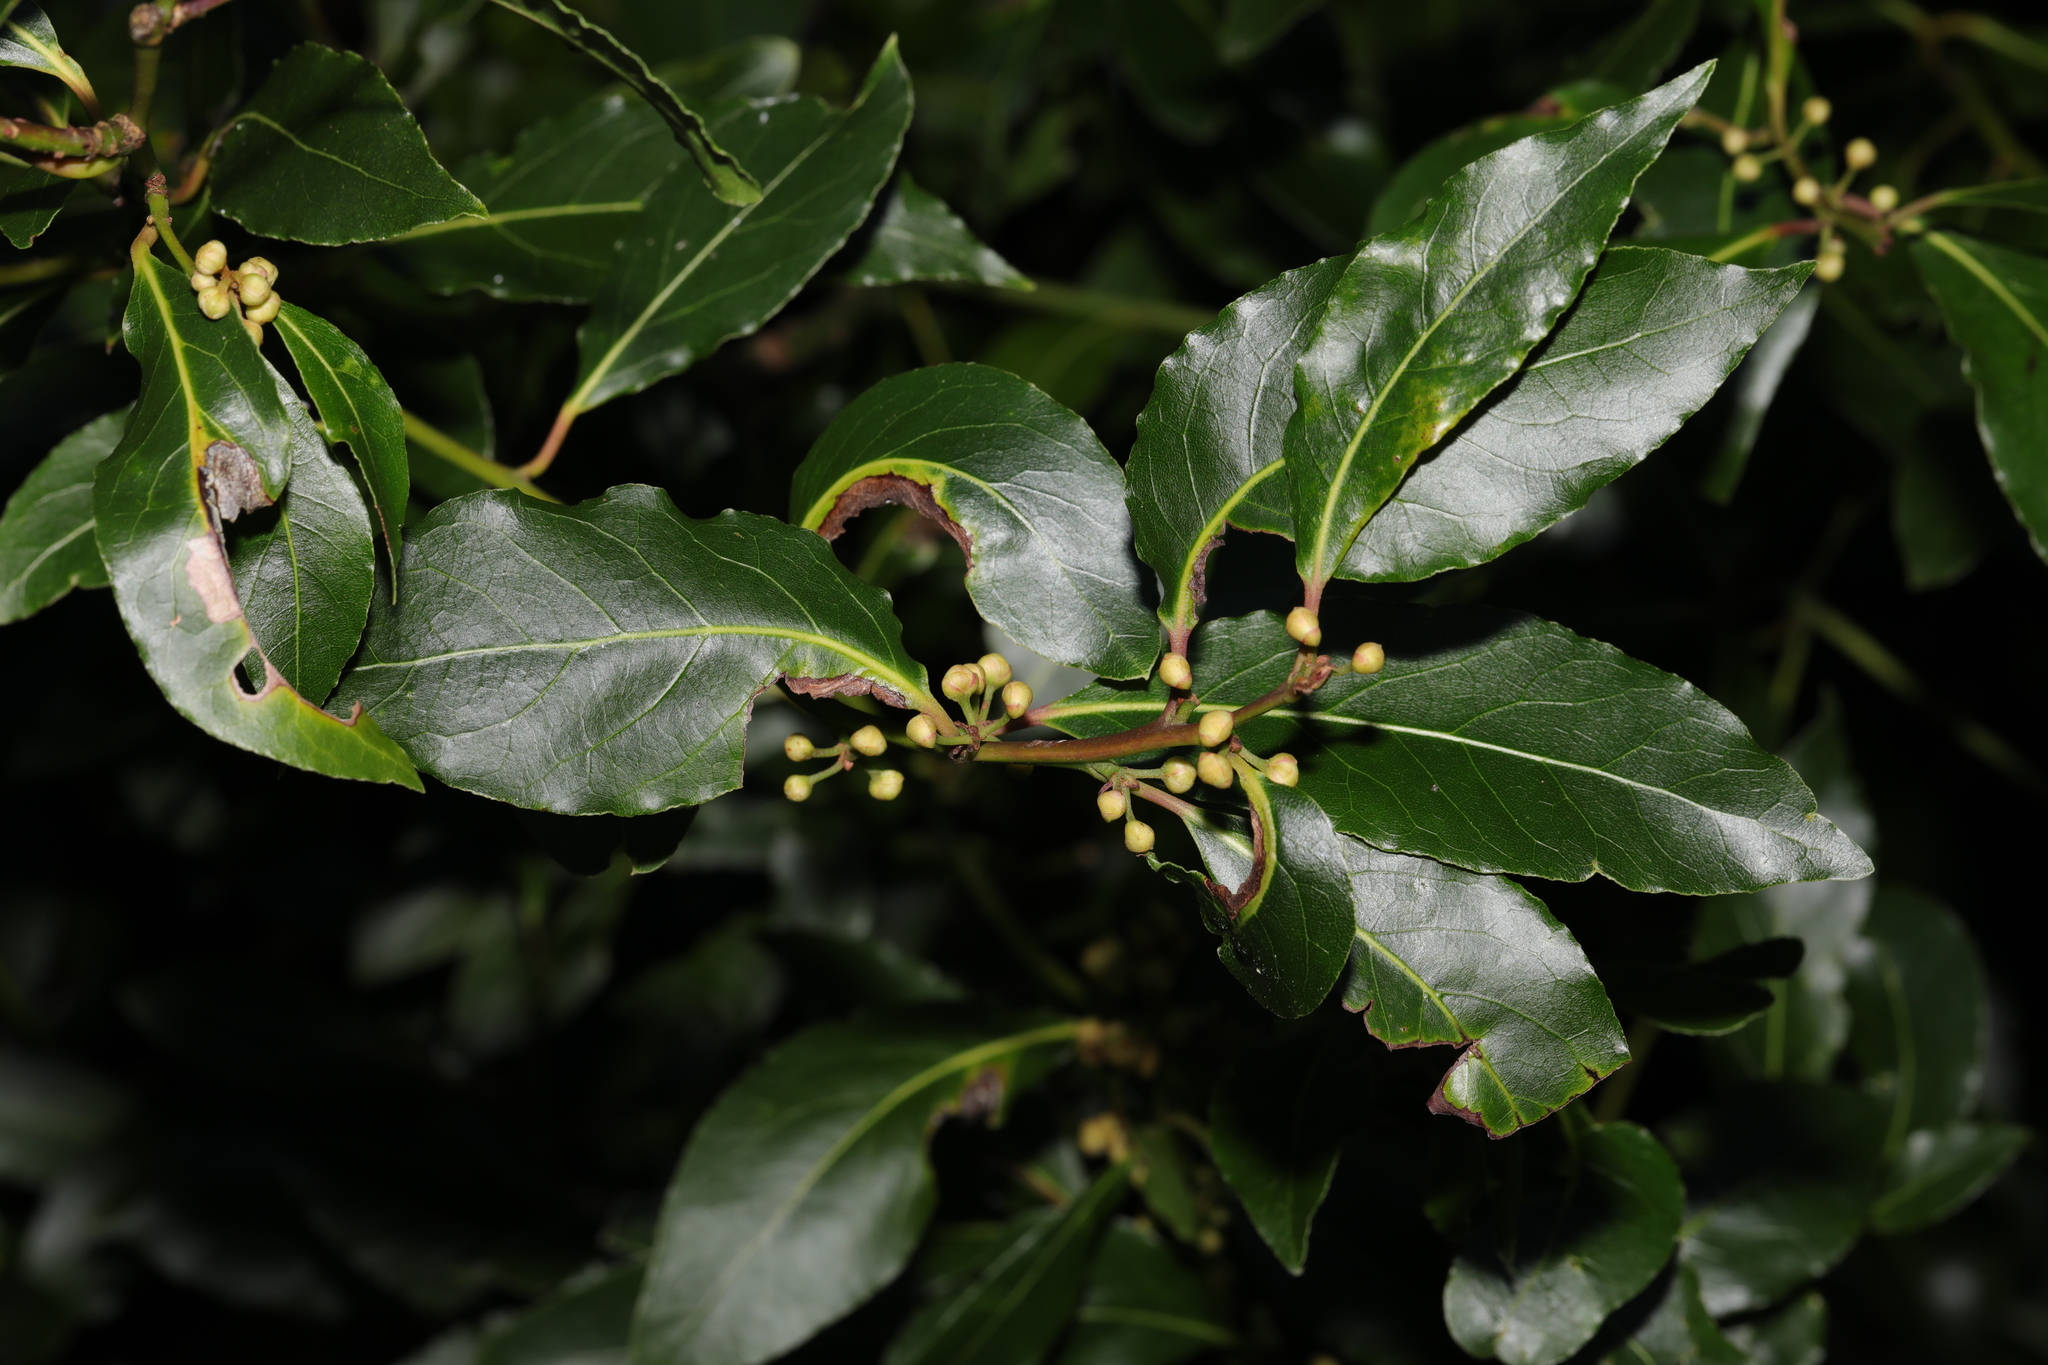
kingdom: Plantae
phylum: Tracheophyta
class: Magnoliopsida
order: Laurales
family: Lauraceae
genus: Laurus
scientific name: Laurus nobilis
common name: Bay
